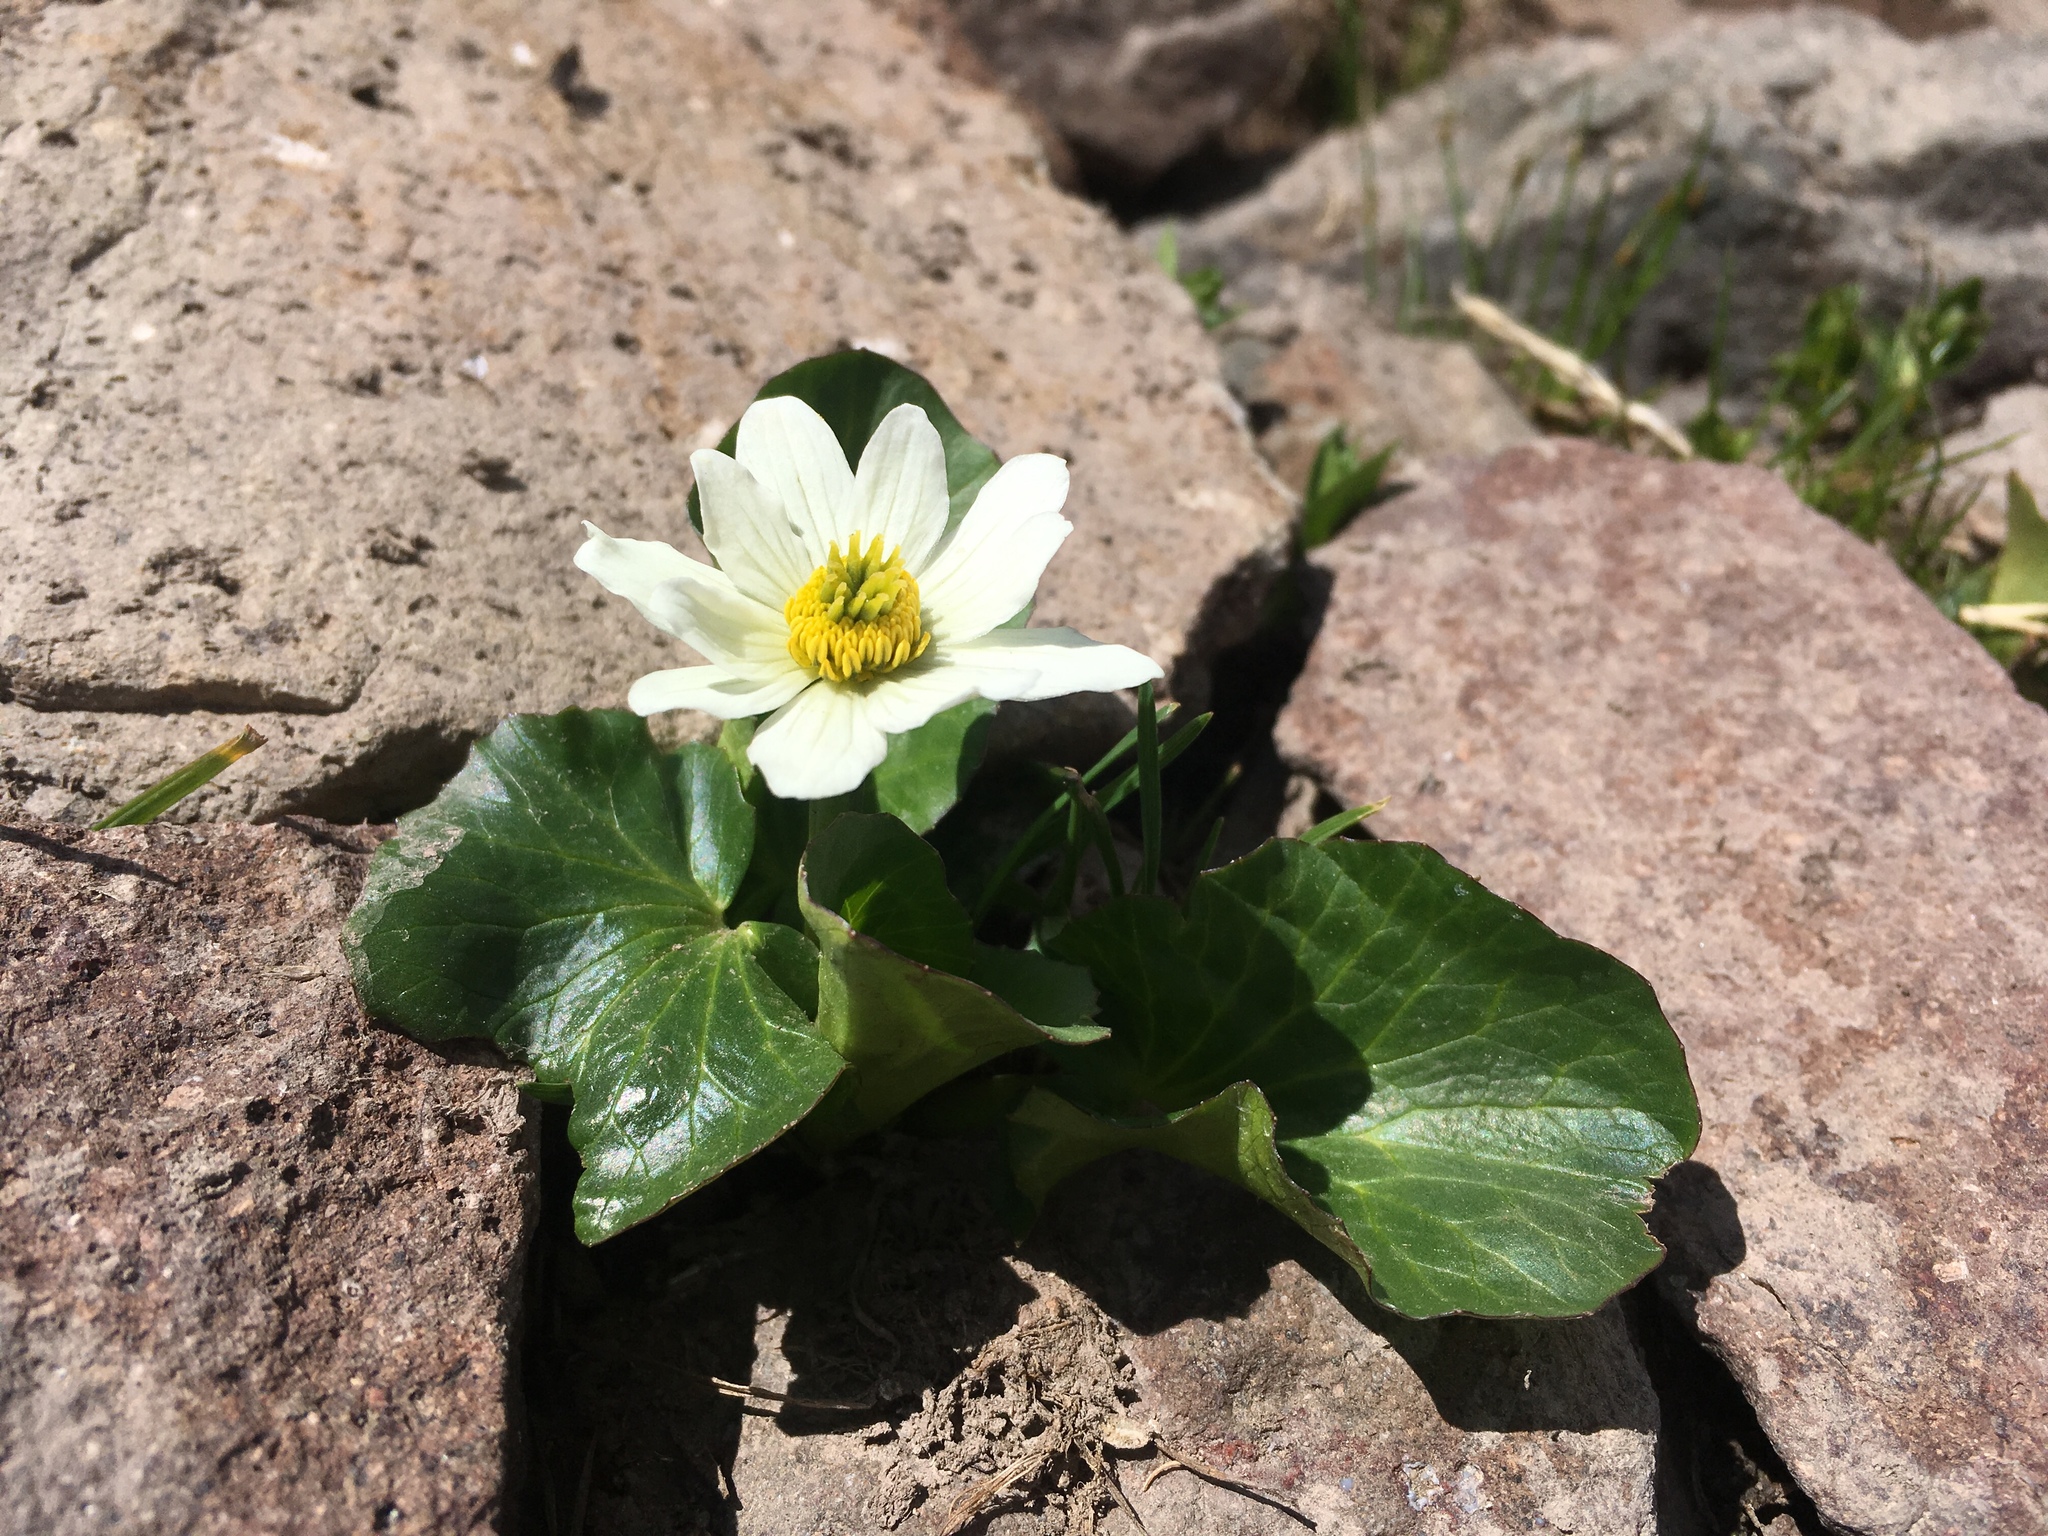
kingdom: Plantae
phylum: Tracheophyta
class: Magnoliopsida
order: Ranunculales
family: Ranunculaceae
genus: Caltha
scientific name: Caltha leptosepala
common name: Elkslip
